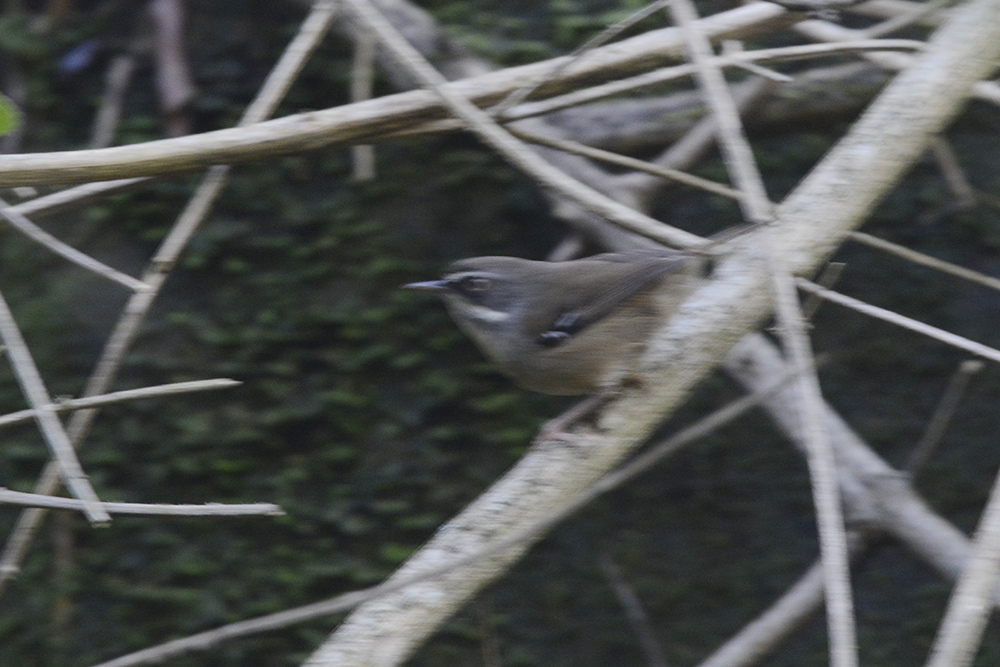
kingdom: Animalia
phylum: Chordata
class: Aves
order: Passeriformes
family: Acanthizidae
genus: Sericornis
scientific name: Sericornis frontalis
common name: White-browed scrubwren
